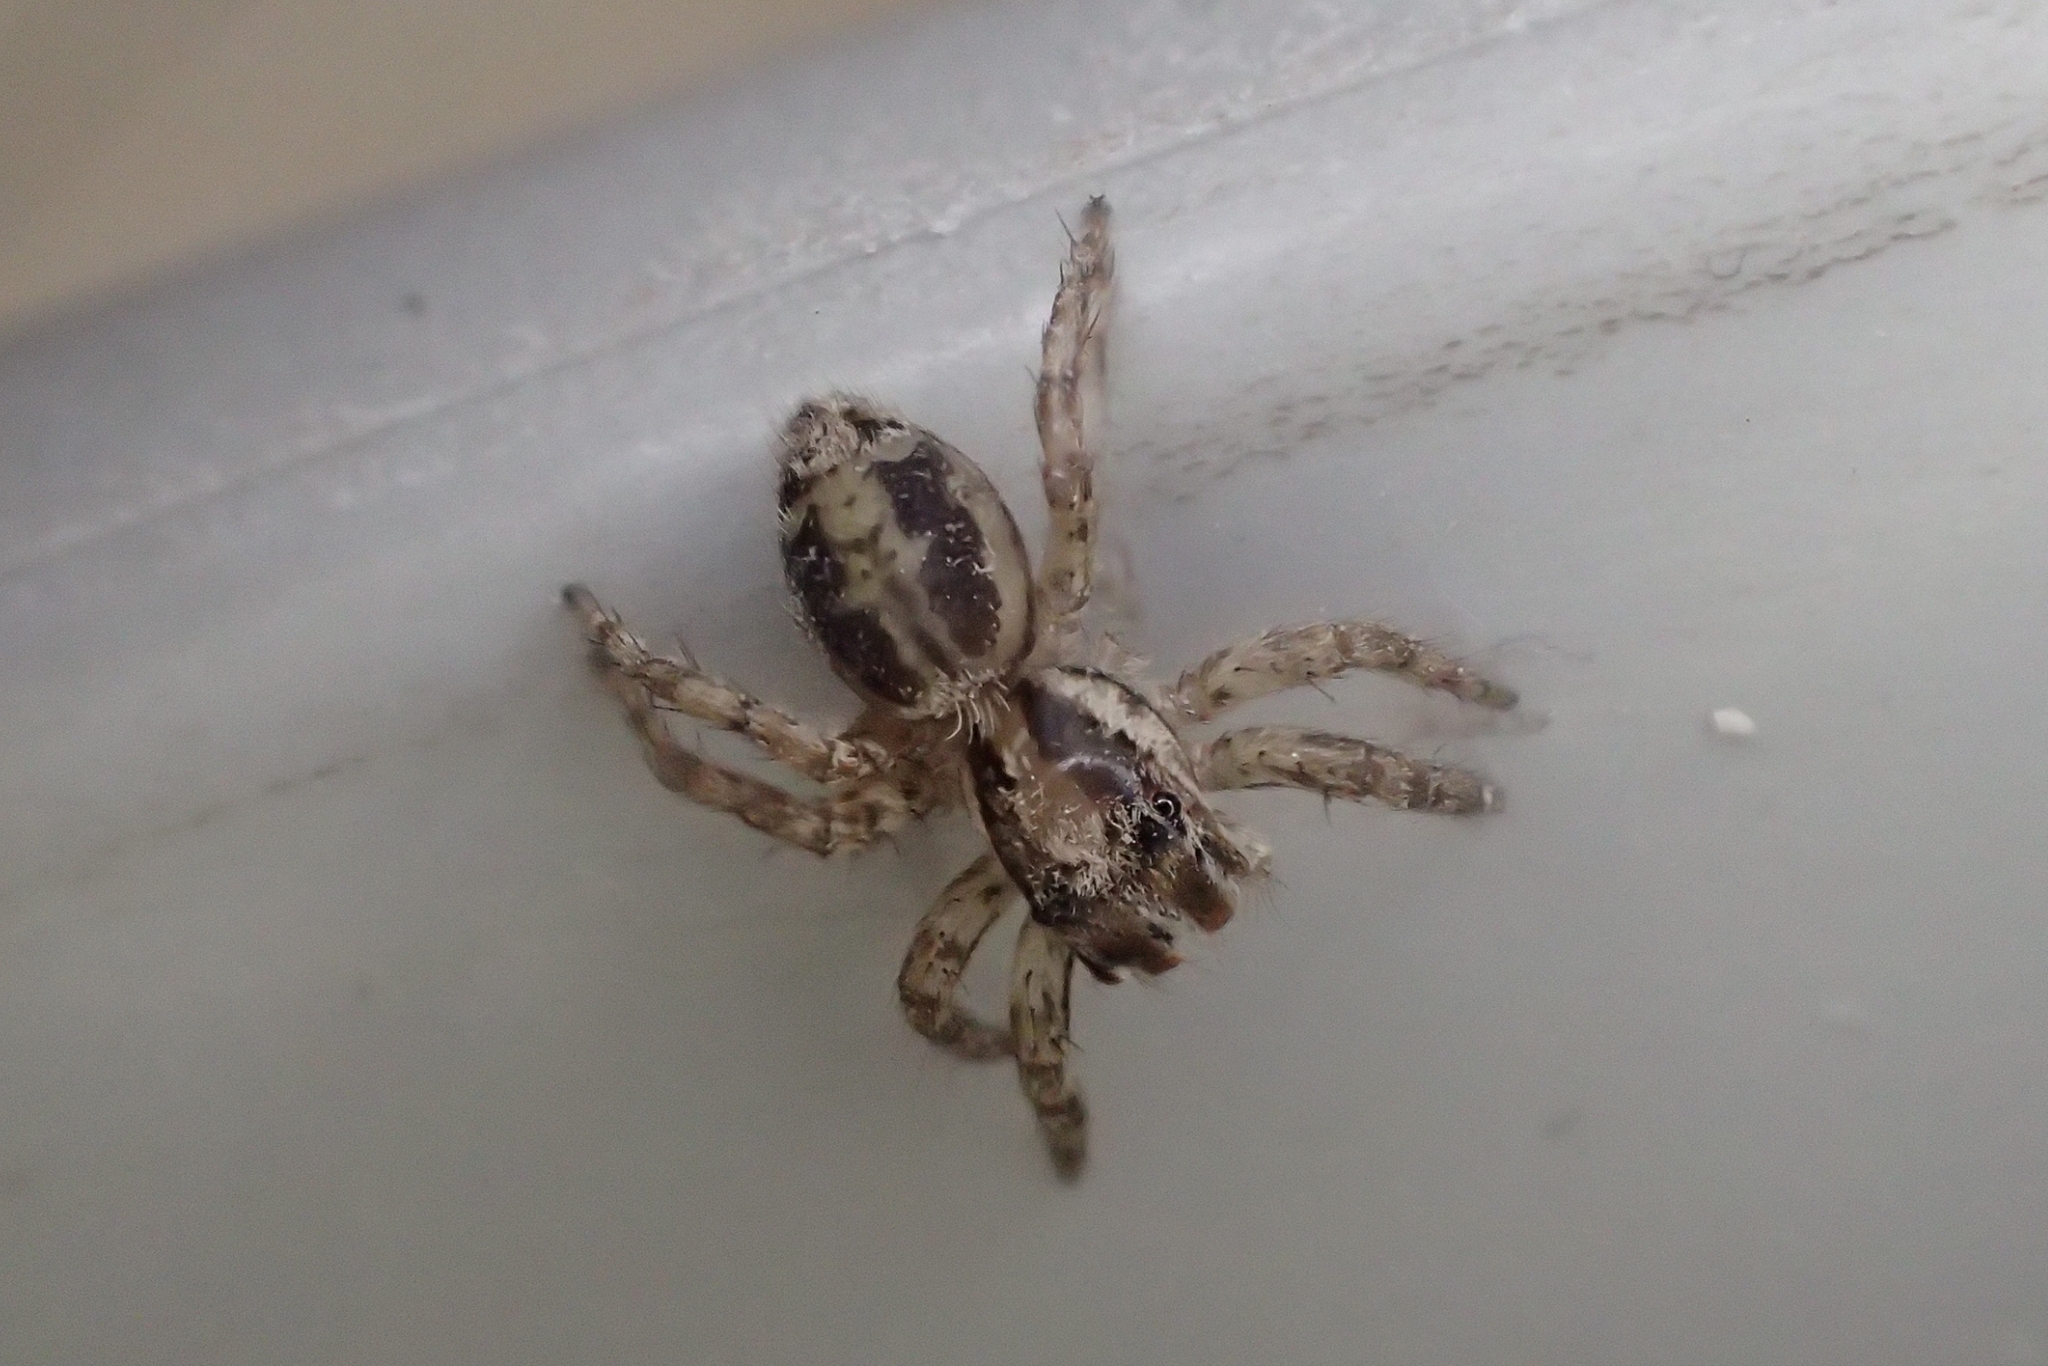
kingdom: Animalia
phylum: Arthropoda
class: Arachnida
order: Araneae
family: Salticidae
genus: Plexippus
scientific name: Plexippus paykulli
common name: Pantropical jumper
